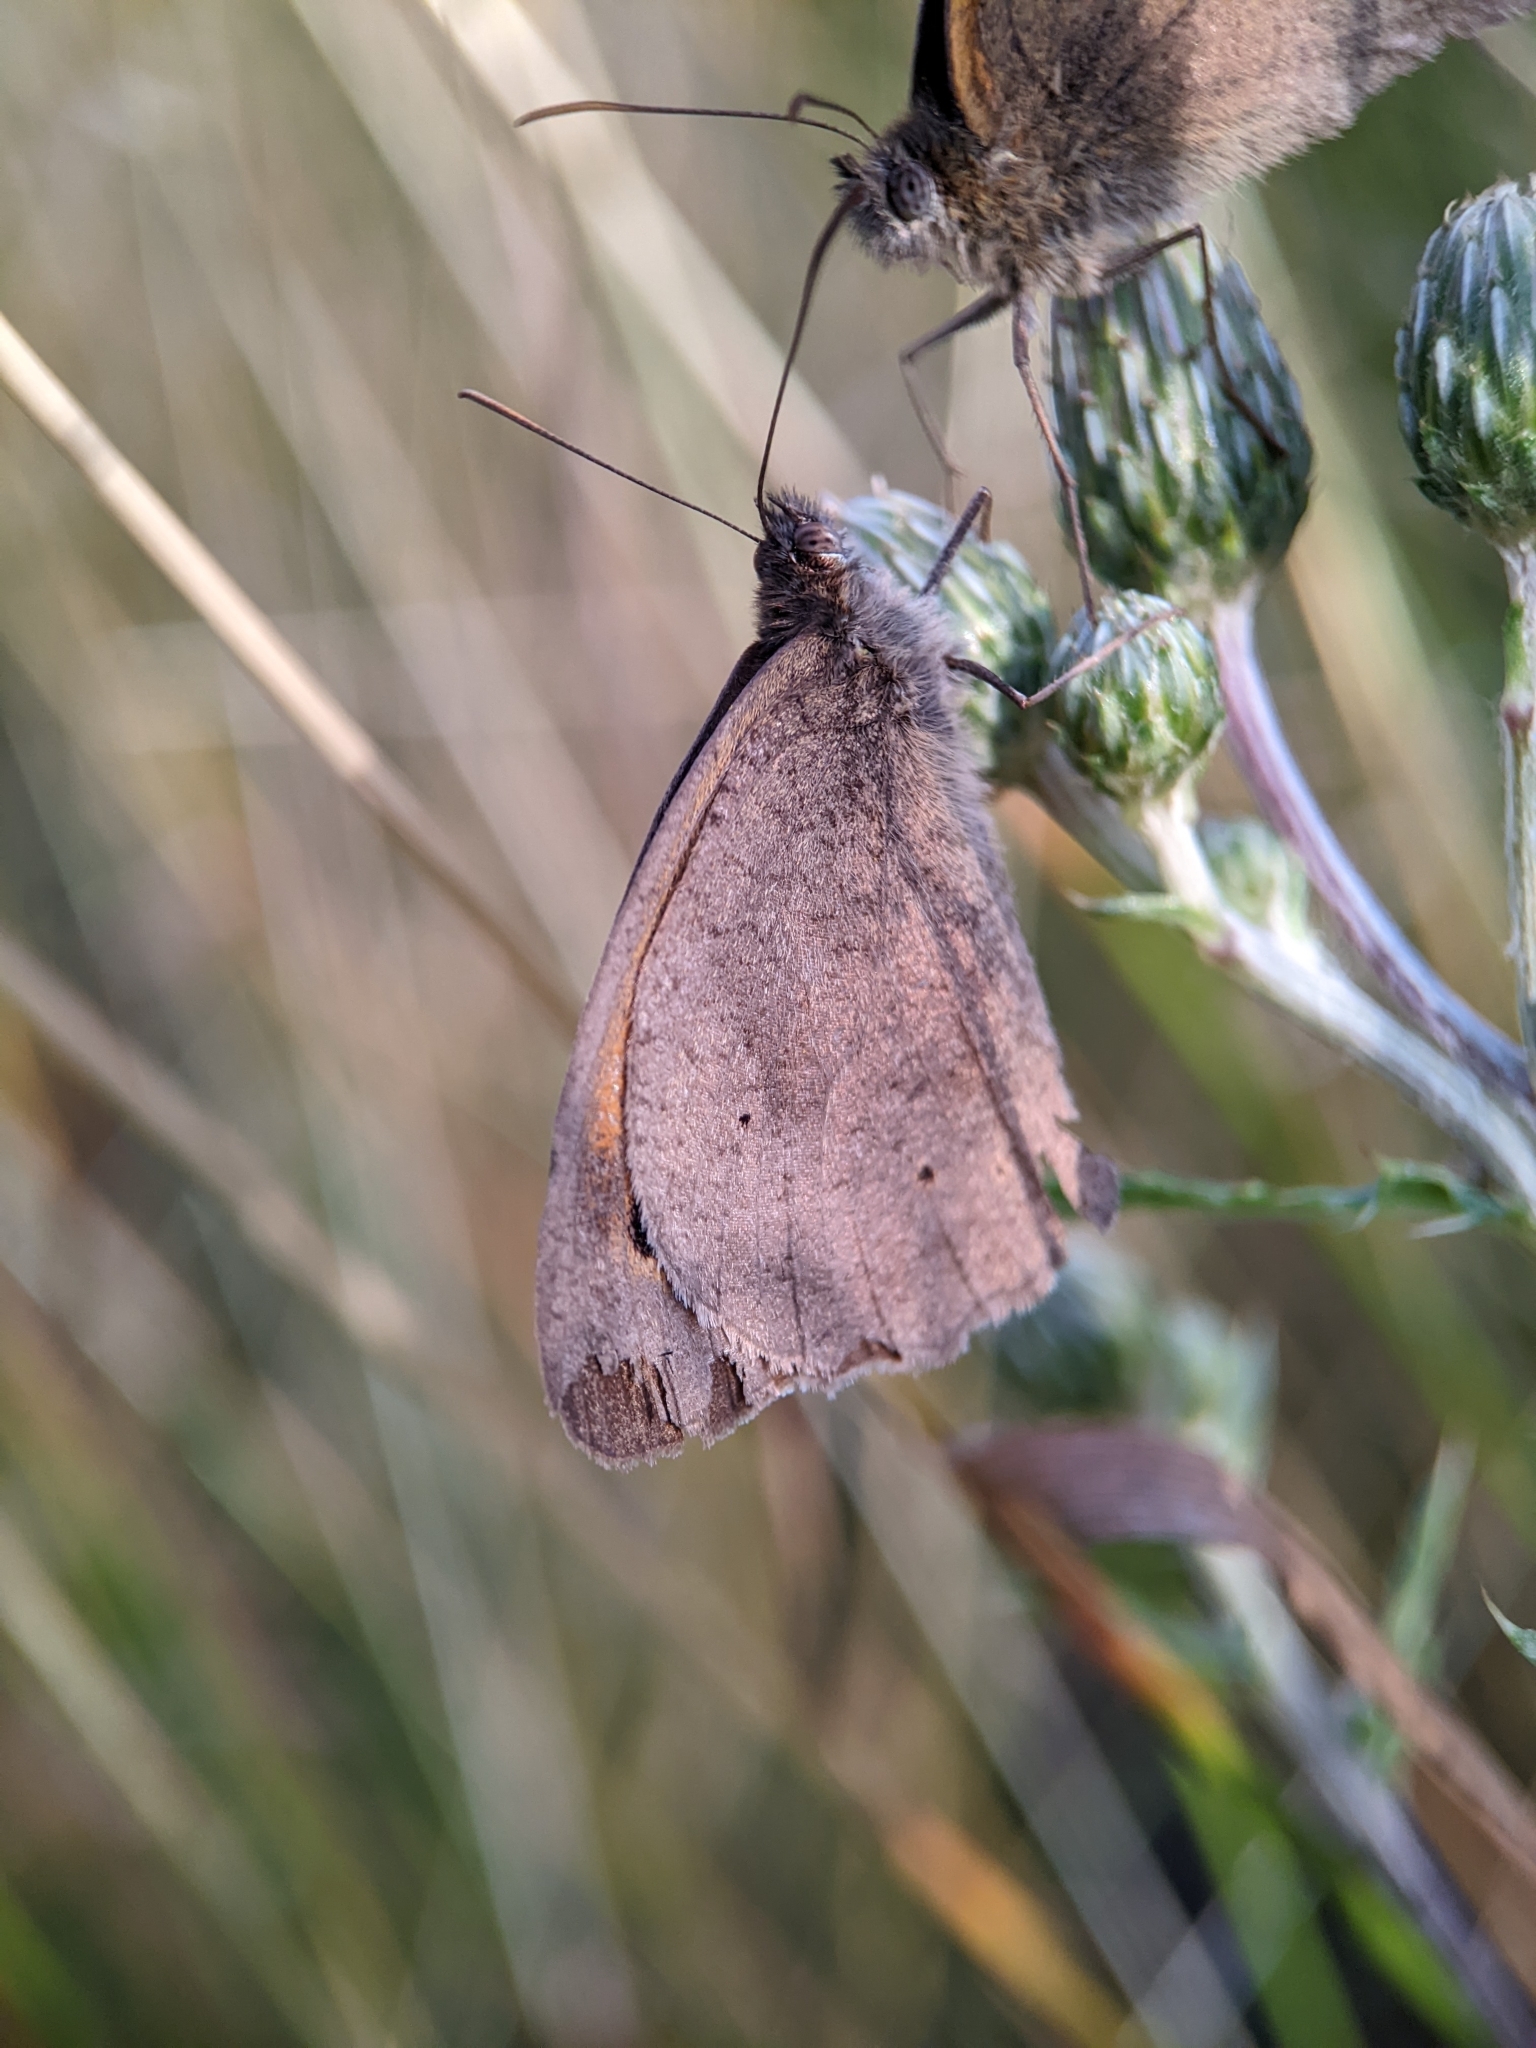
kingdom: Animalia
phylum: Arthropoda
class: Insecta
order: Lepidoptera
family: Nymphalidae
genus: Maniola
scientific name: Maniola jurtina
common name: Meadow brown
